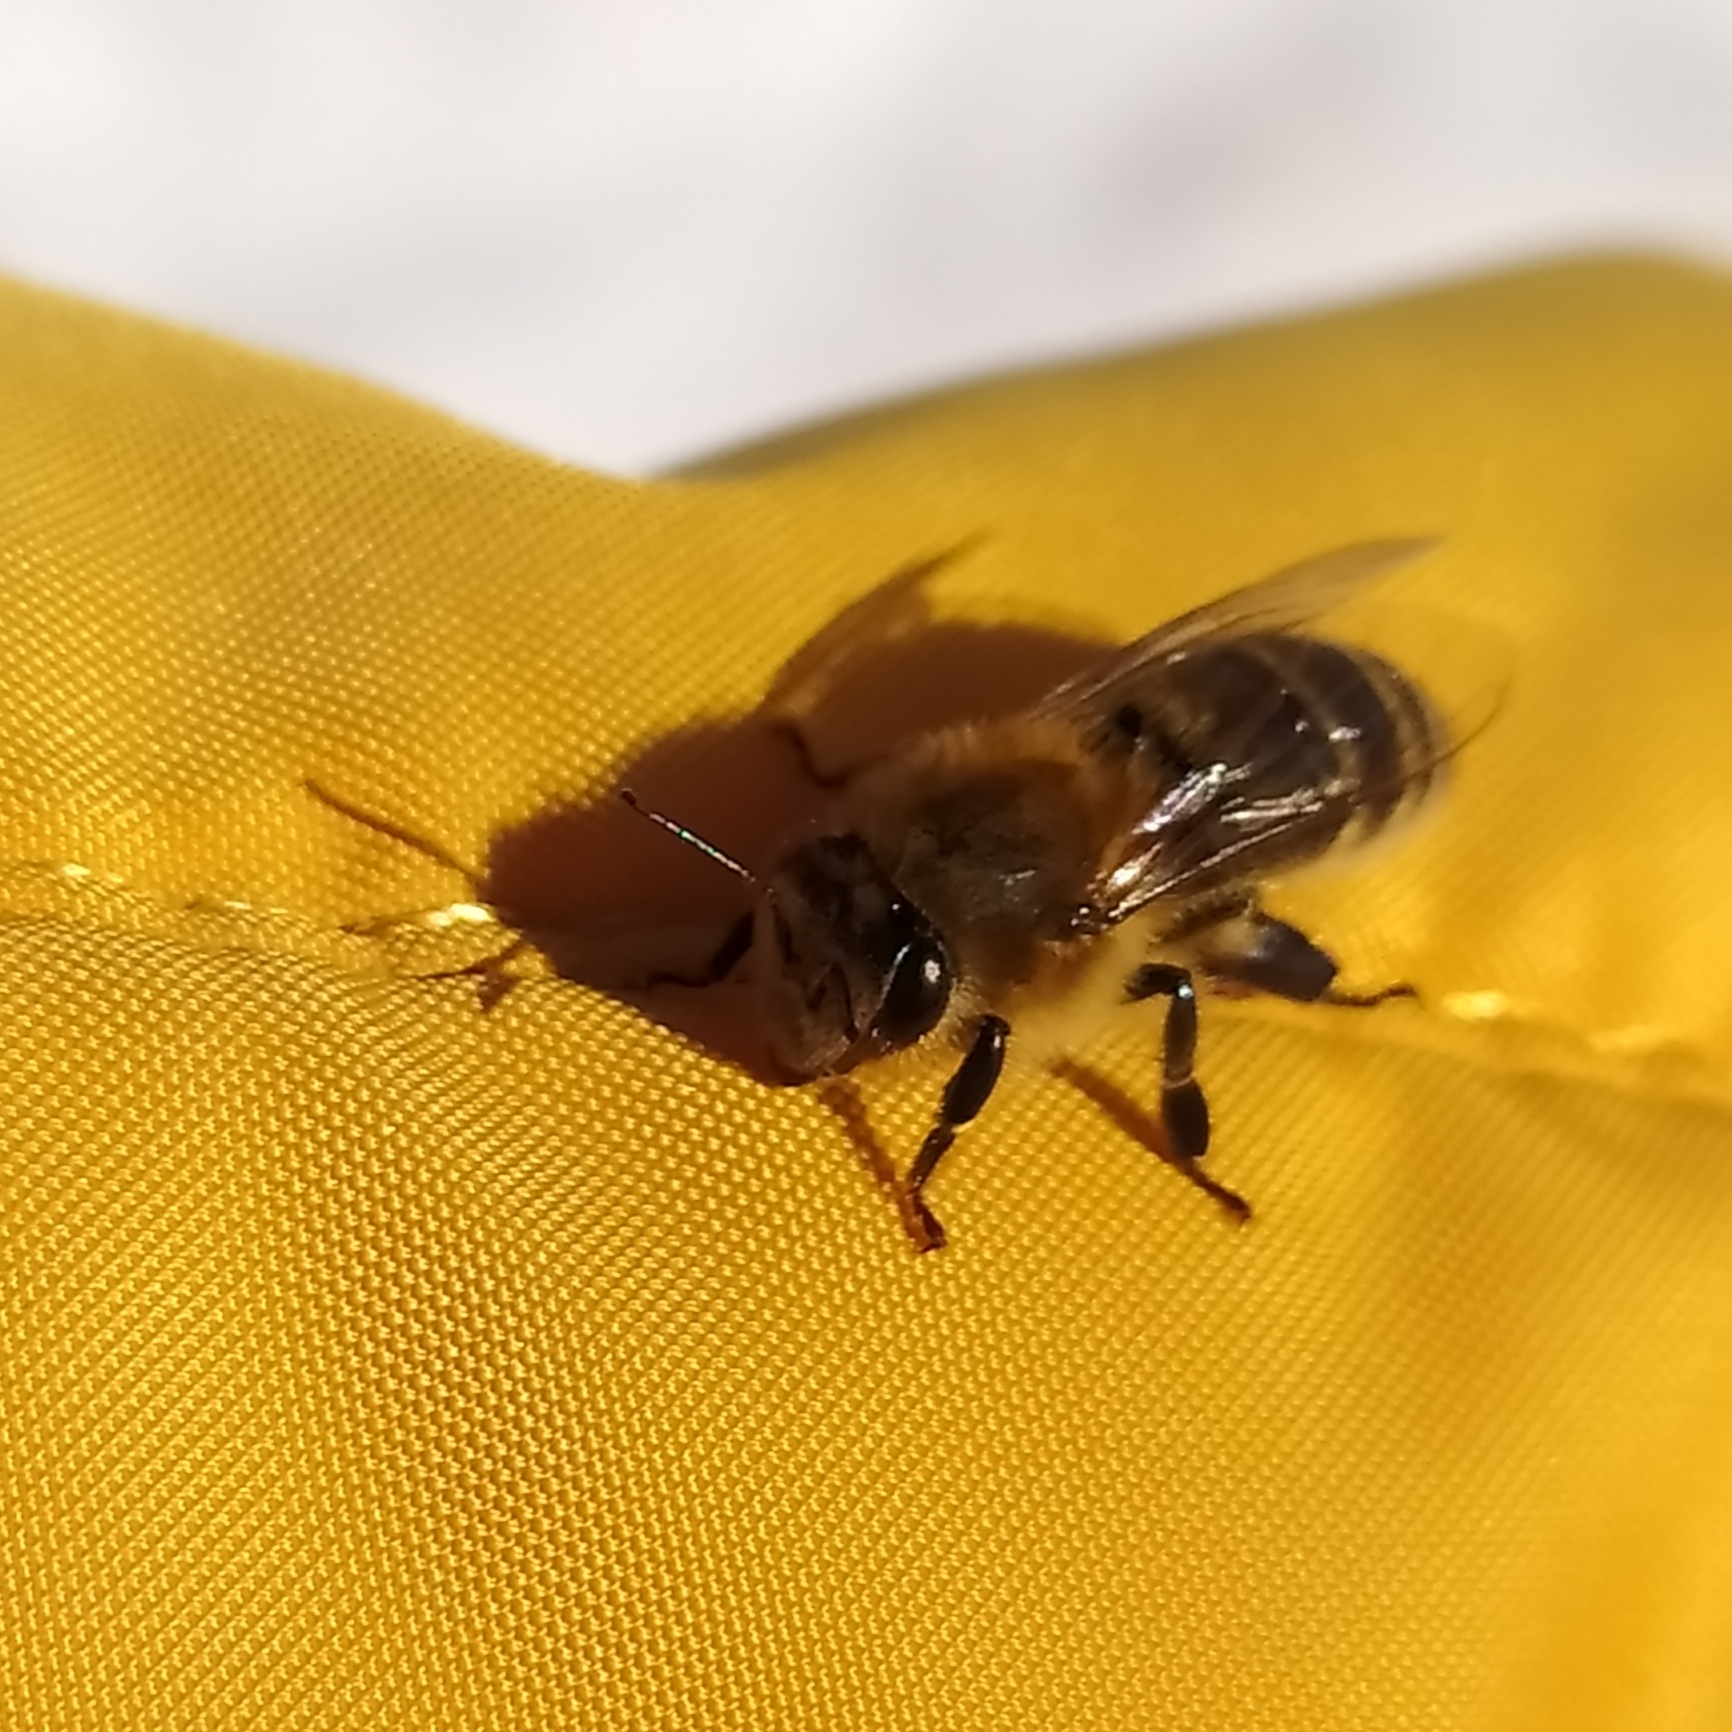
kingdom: Animalia
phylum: Arthropoda
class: Insecta
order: Hymenoptera
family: Apidae
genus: Apis
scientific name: Apis mellifera
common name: Honey bee
